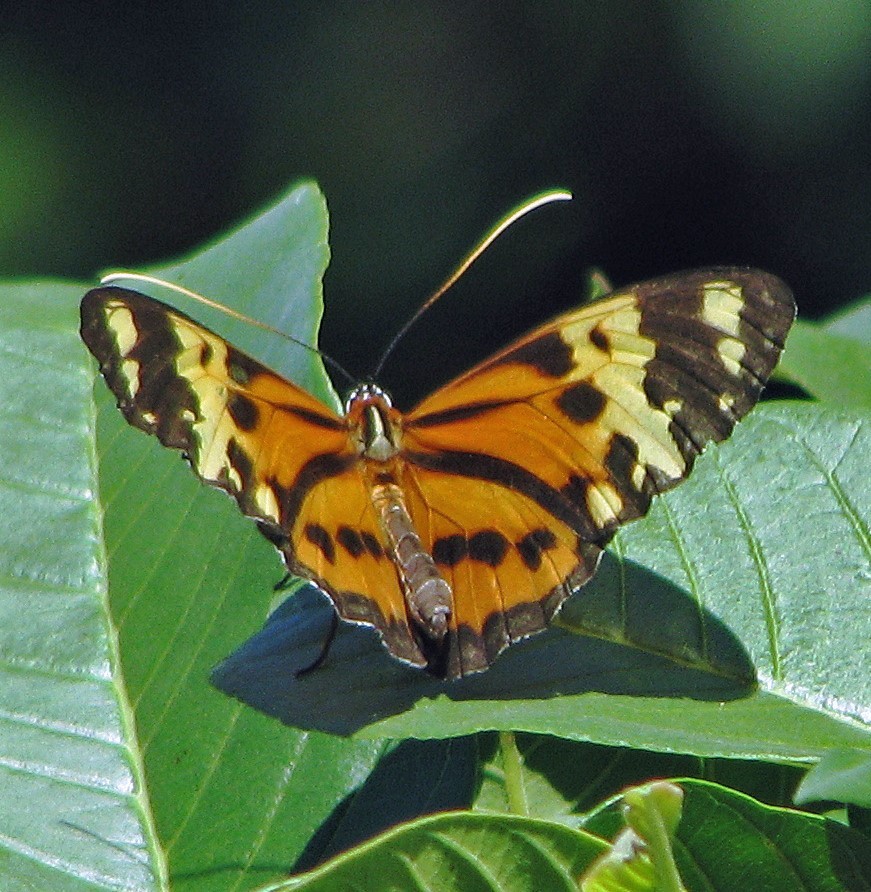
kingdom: Animalia
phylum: Arthropoda
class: Insecta
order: Lepidoptera
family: Nymphalidae
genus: Tithorea
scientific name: Tithorea harmonia
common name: Harmonia tigerwing
